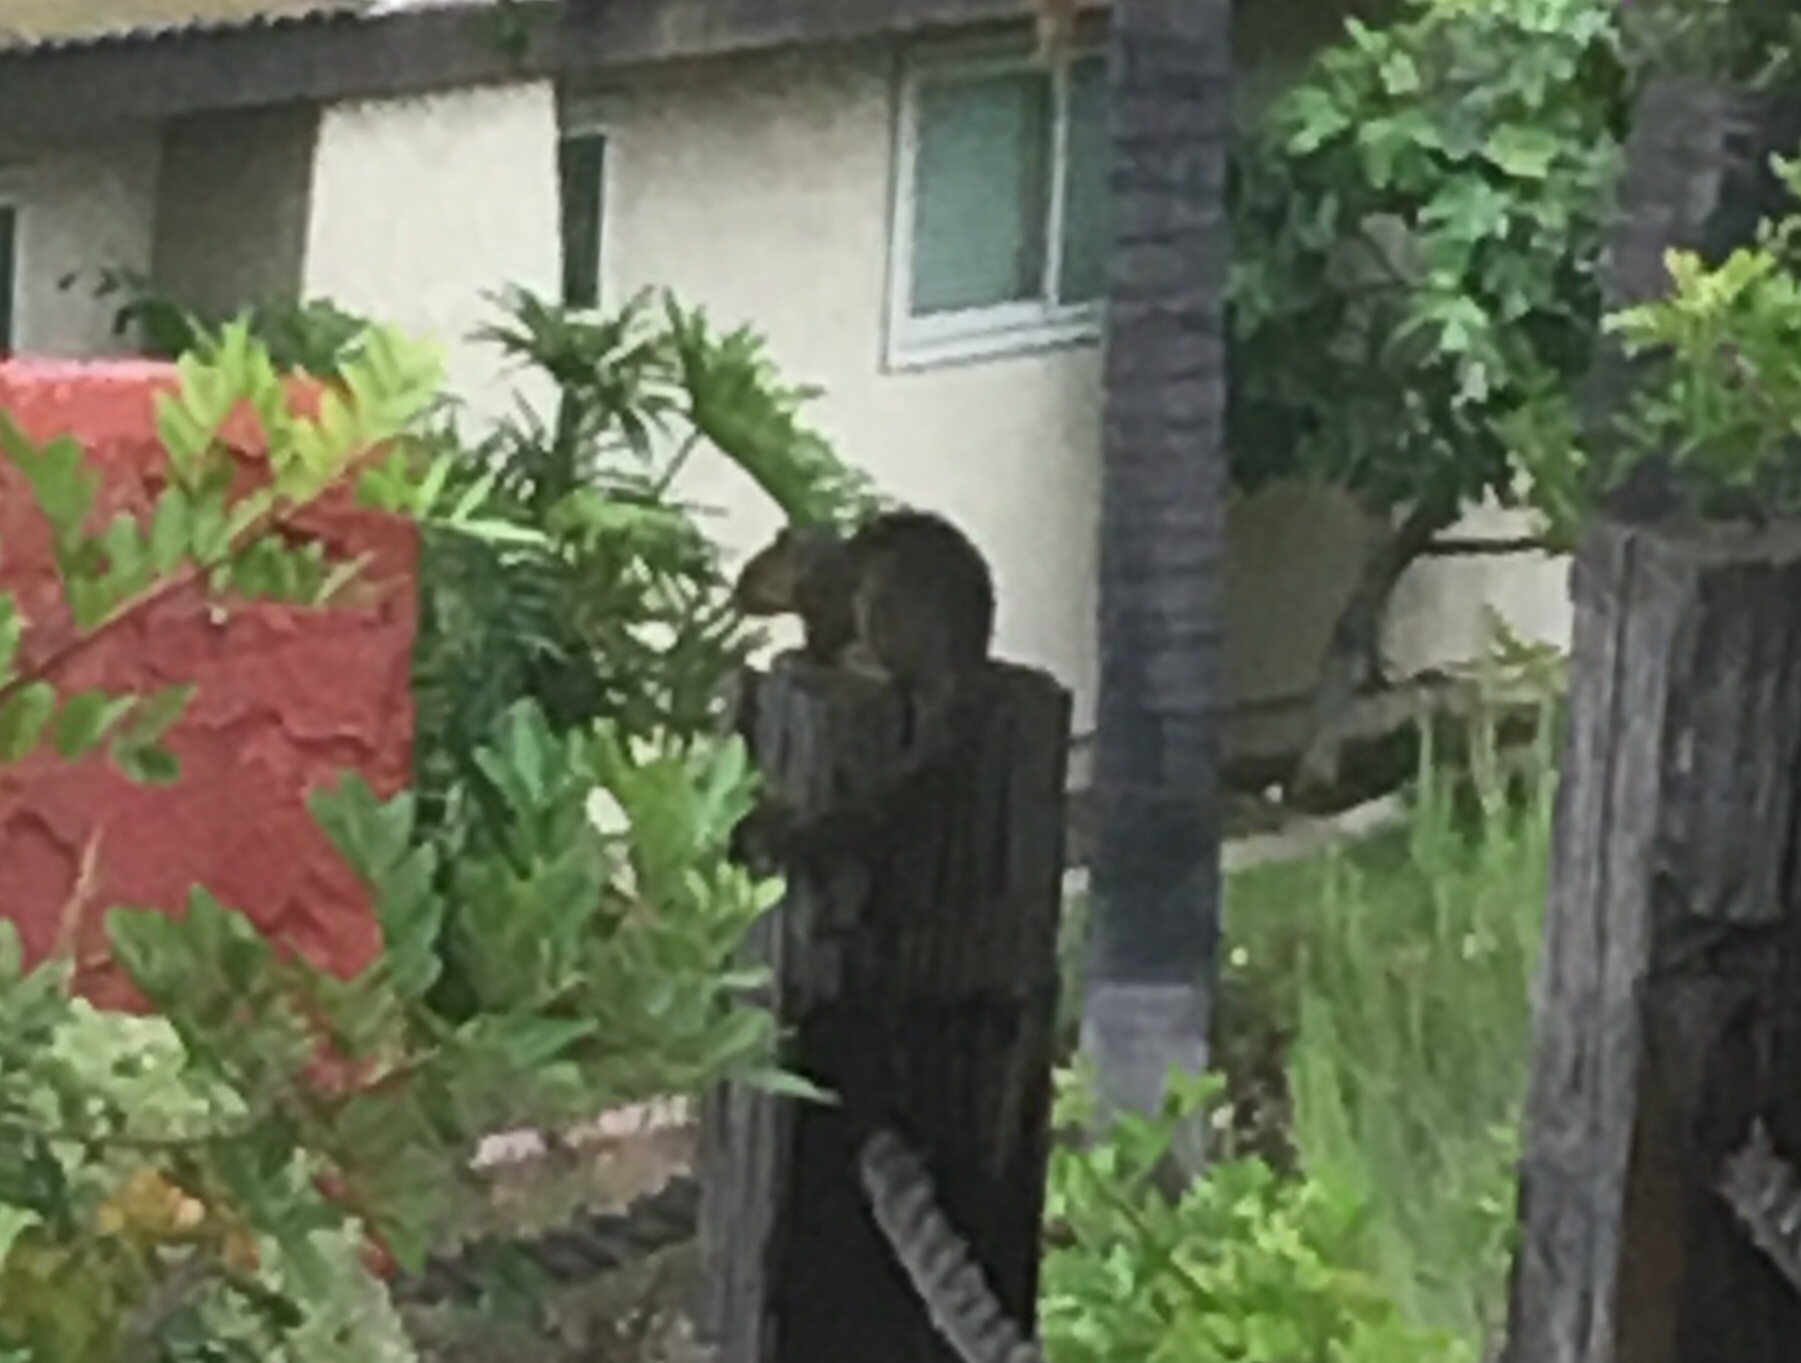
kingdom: Animalia
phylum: Chordata
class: Mammalia
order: Rodentia
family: Sciuridae
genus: Sciurus
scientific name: Sciurus niger
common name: Fox squirrel
